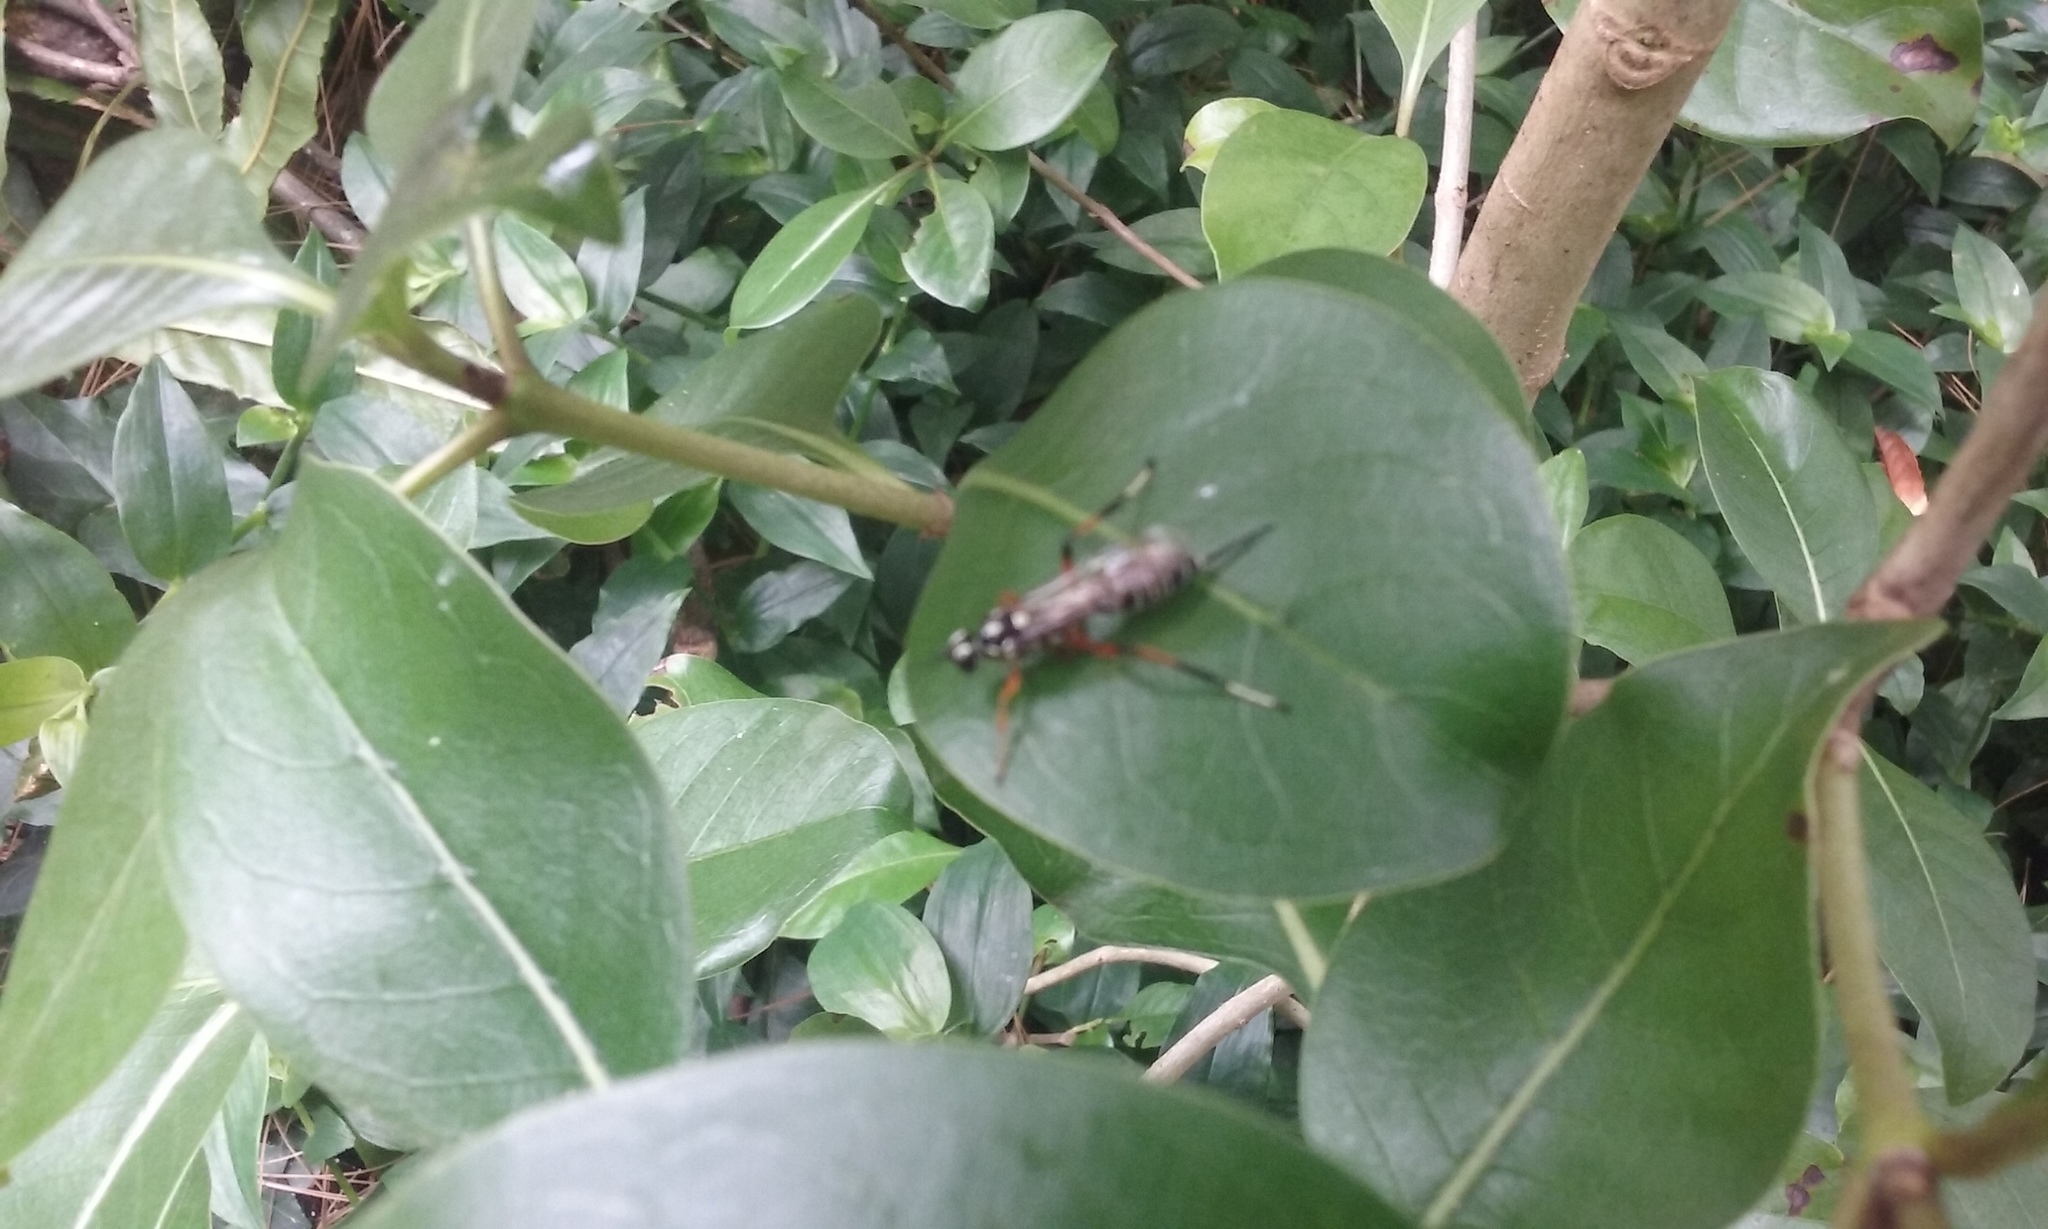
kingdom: Animalia
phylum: Arthropoda
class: Insecta
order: Hymenoptera
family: Ichneumonidae
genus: Xanthocryptus
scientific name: Xanthocryptus novozealandicus
